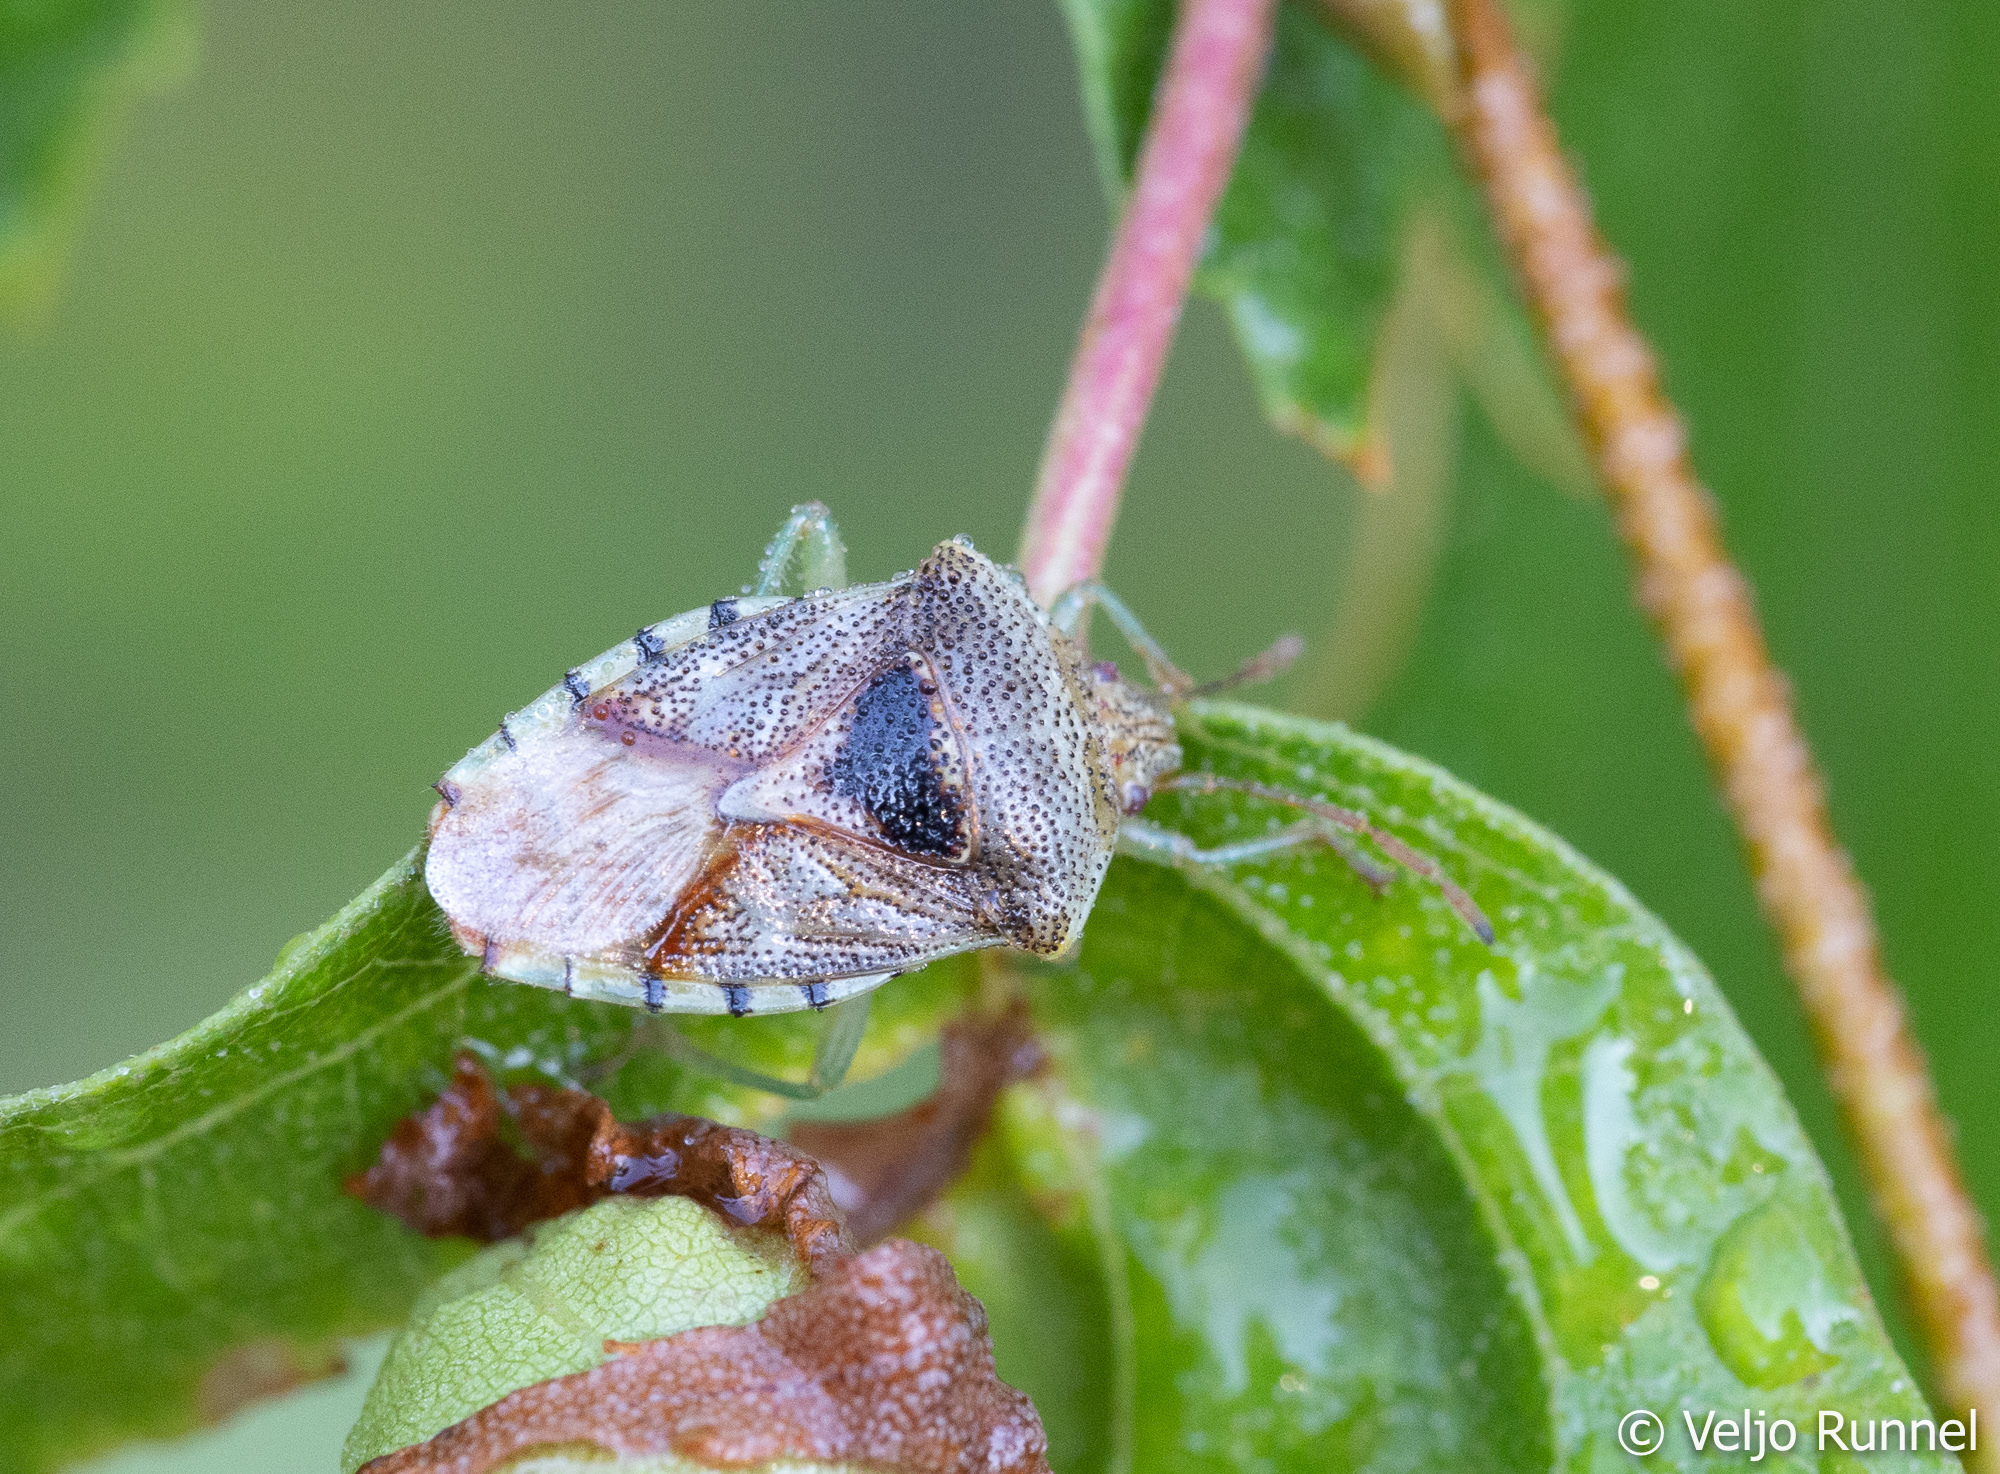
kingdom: Animalia
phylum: Arthropoda
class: Insecta
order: Hemiptera
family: Acanthosomatidae
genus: Elasmucha
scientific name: Elasmucha grisea
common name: Parent bug
